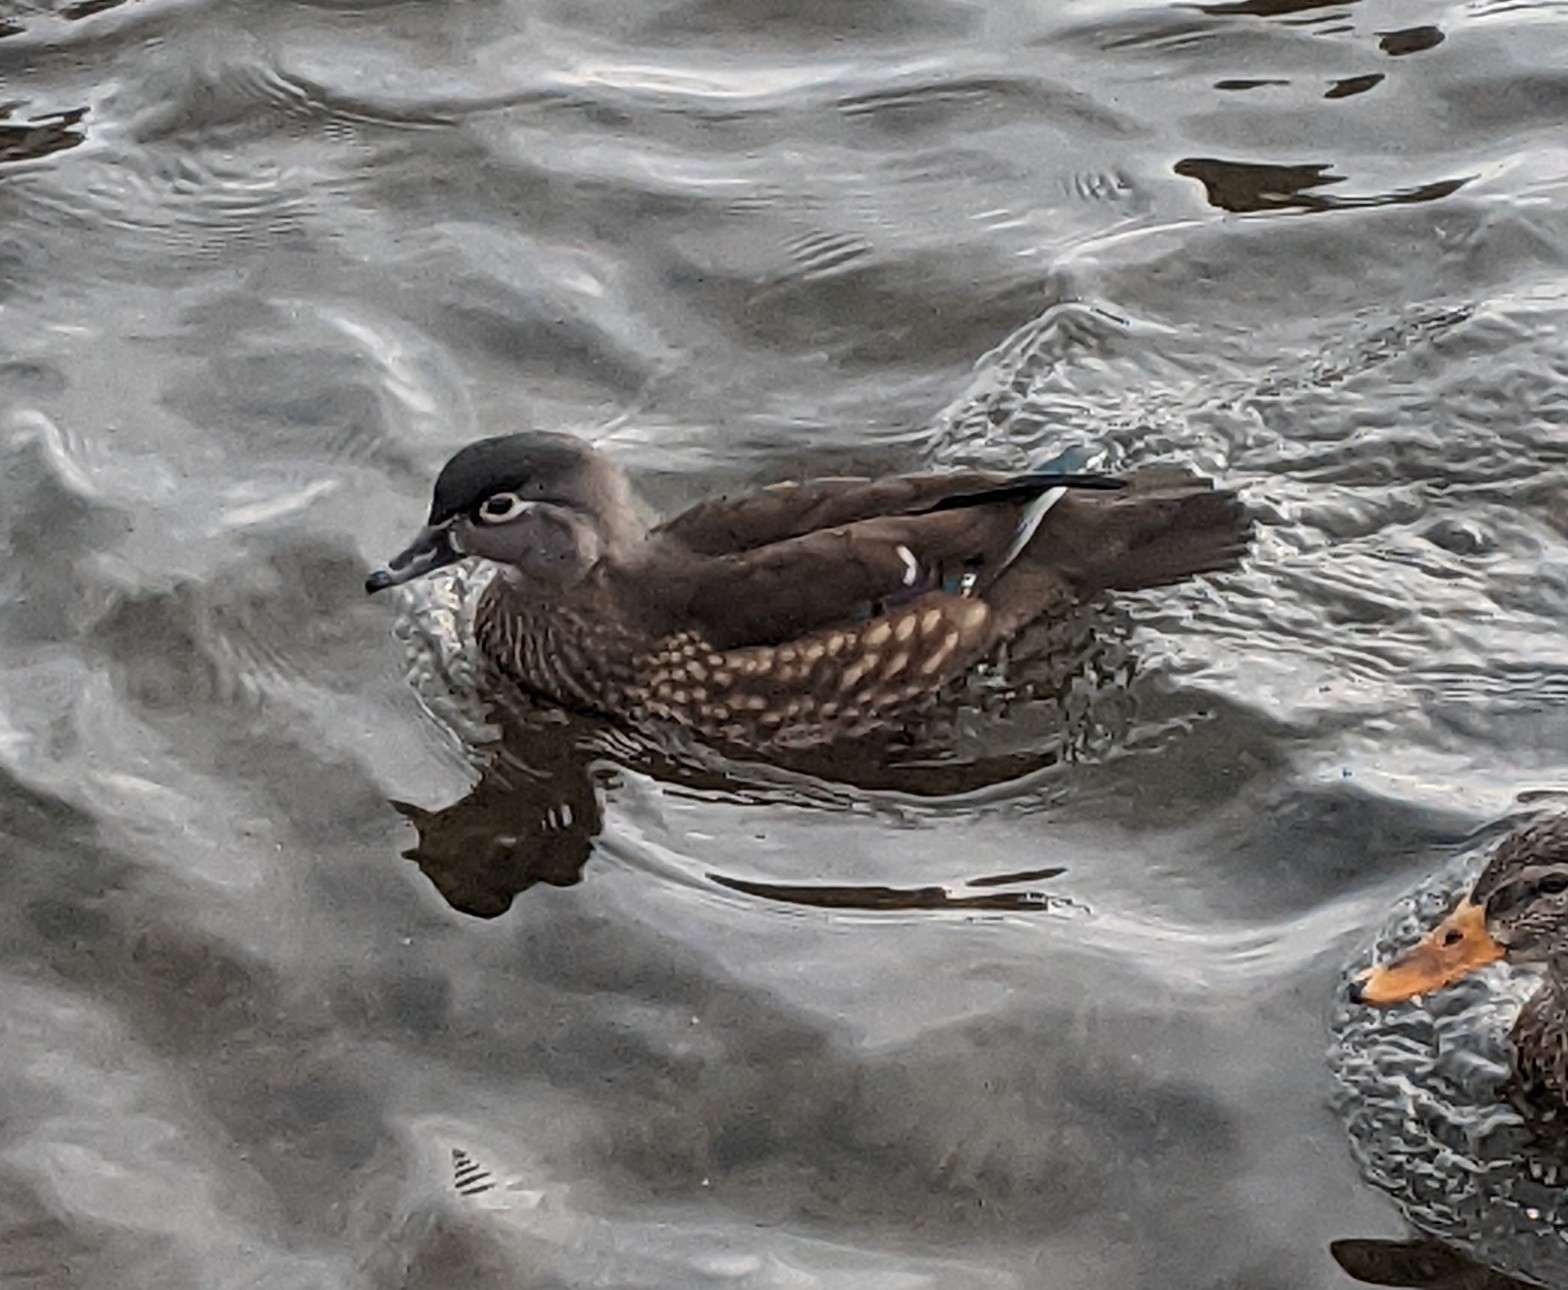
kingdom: Animalia
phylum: Chordata
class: Aves
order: Anseriformes
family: Anatidae
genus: Aix
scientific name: Aix sponsa
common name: Wood duck
